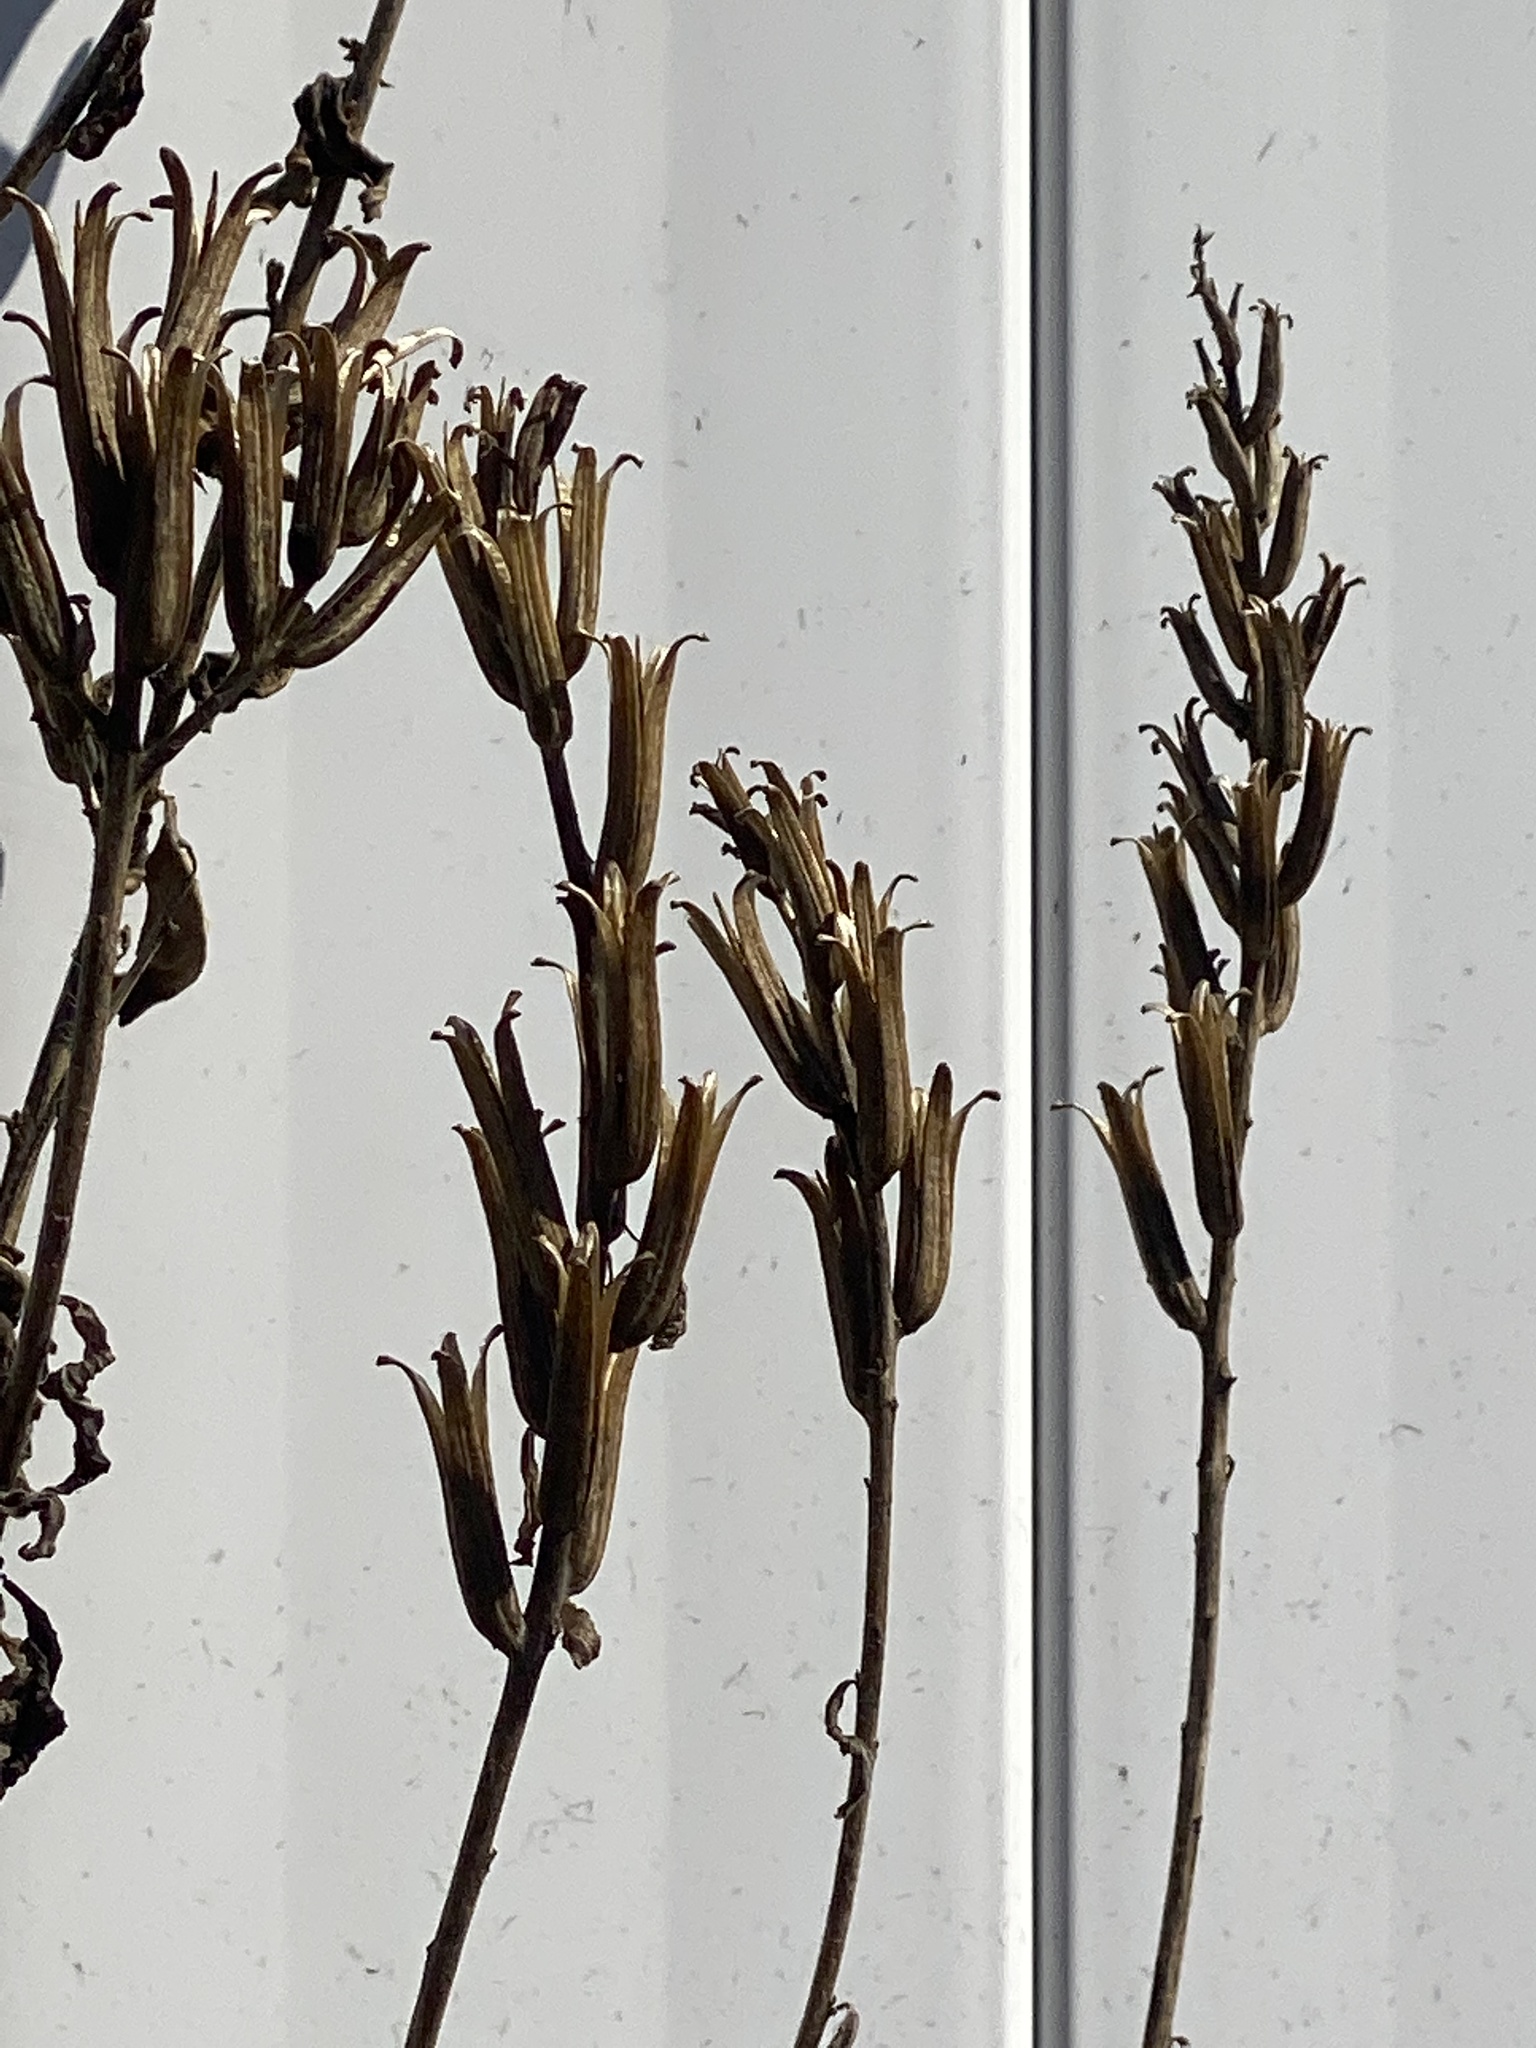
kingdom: Plantae
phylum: Tracheophyta
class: Magnoliopsida
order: Myrtales
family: Onagraceae
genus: Oenothera
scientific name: Oenothera biennis
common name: Common evening-primrose
